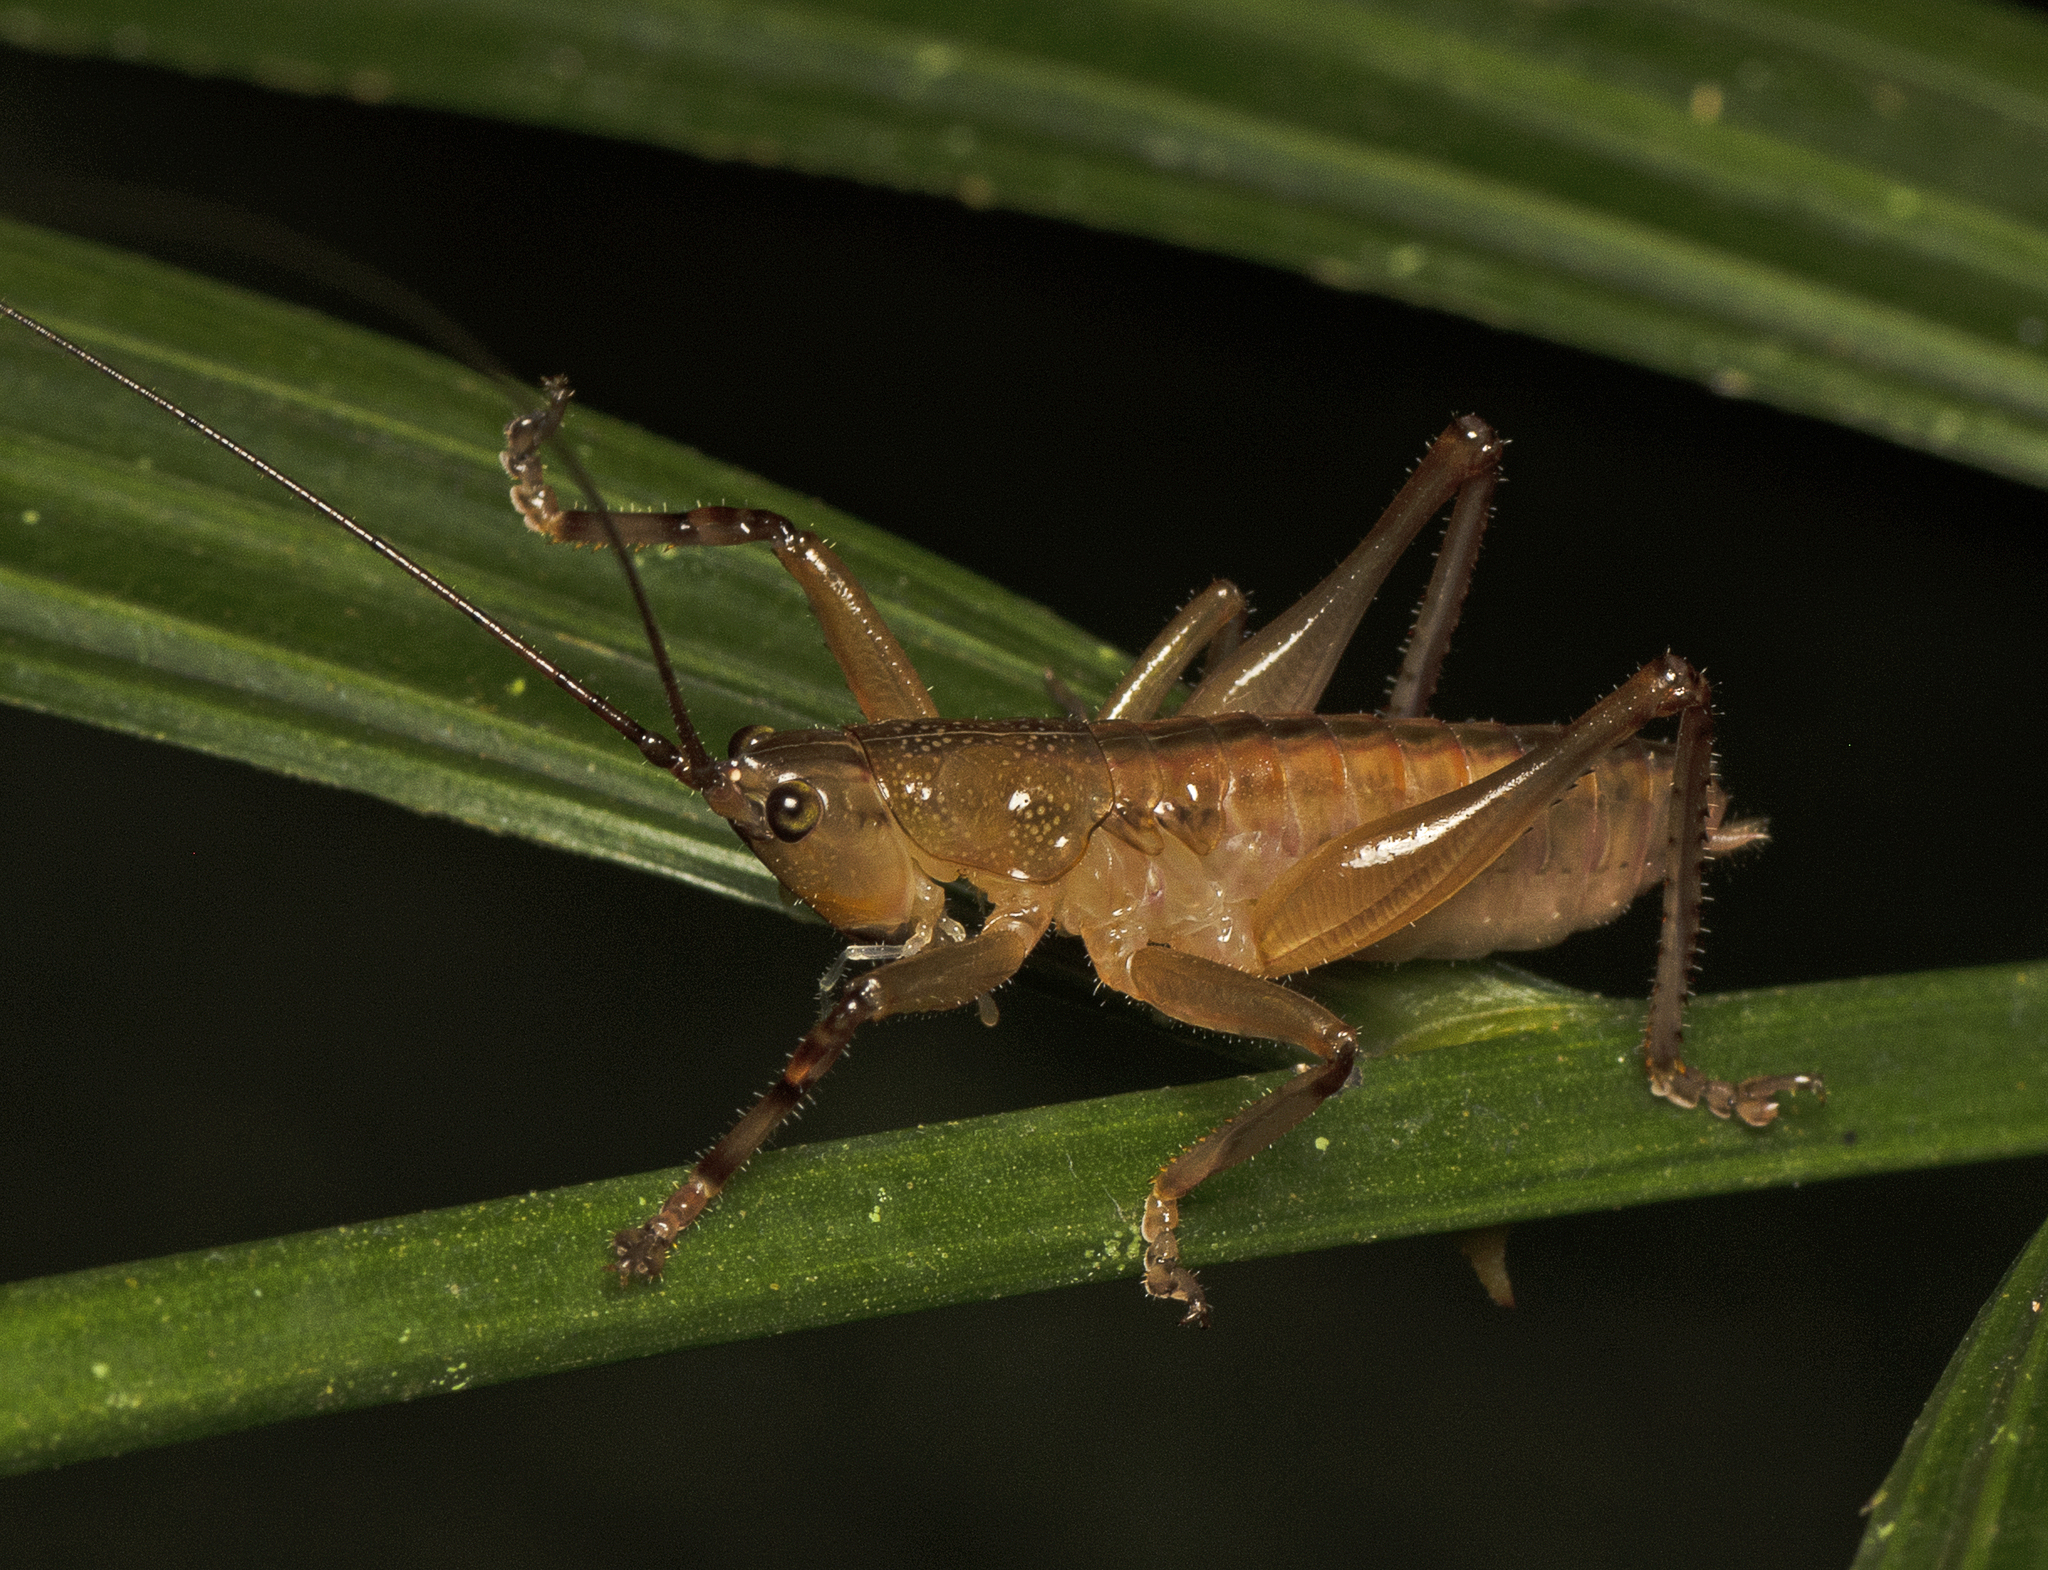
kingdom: Animalia
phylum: Arthropoda
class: Insecta
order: Orthoptera
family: Tettigoniidae
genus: Barbaragraecia
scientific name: Barbaragraecia richardsoni
